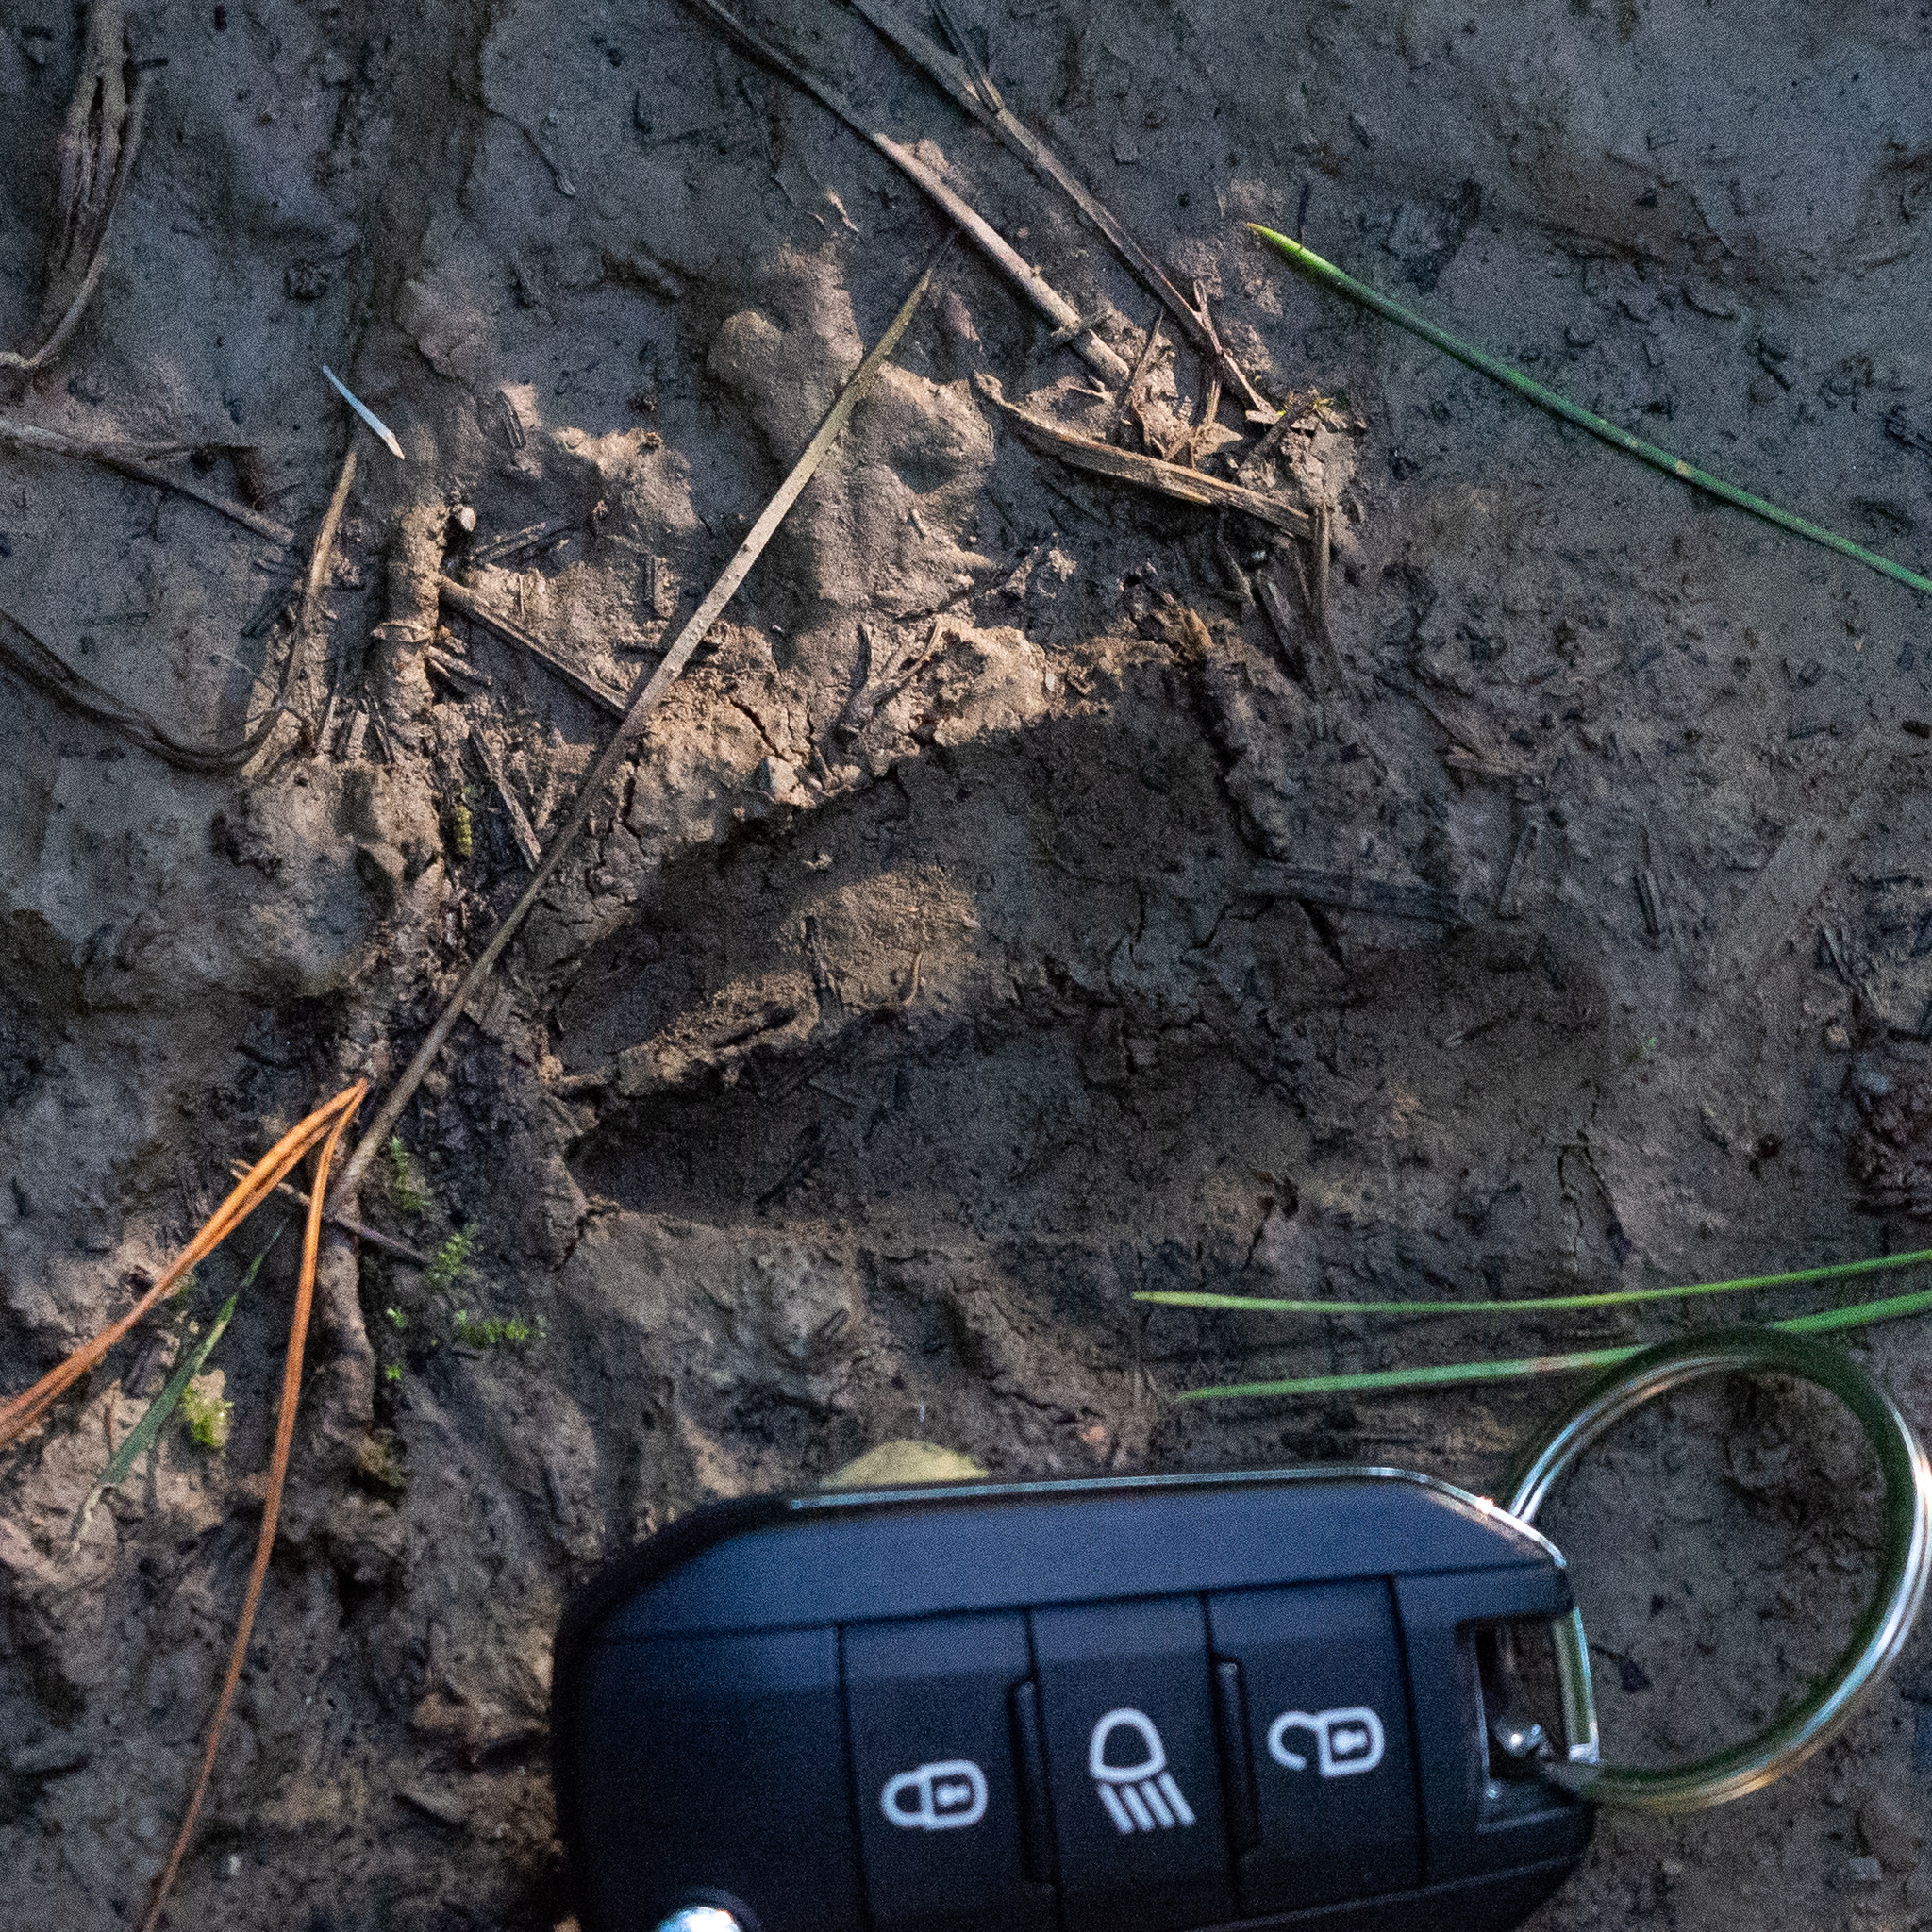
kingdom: Animalia
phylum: Chordata
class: Mammalia
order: Artiodactyla
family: Cervidae
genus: Capreolus
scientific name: Capreolus capreolus
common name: Western roe deer
